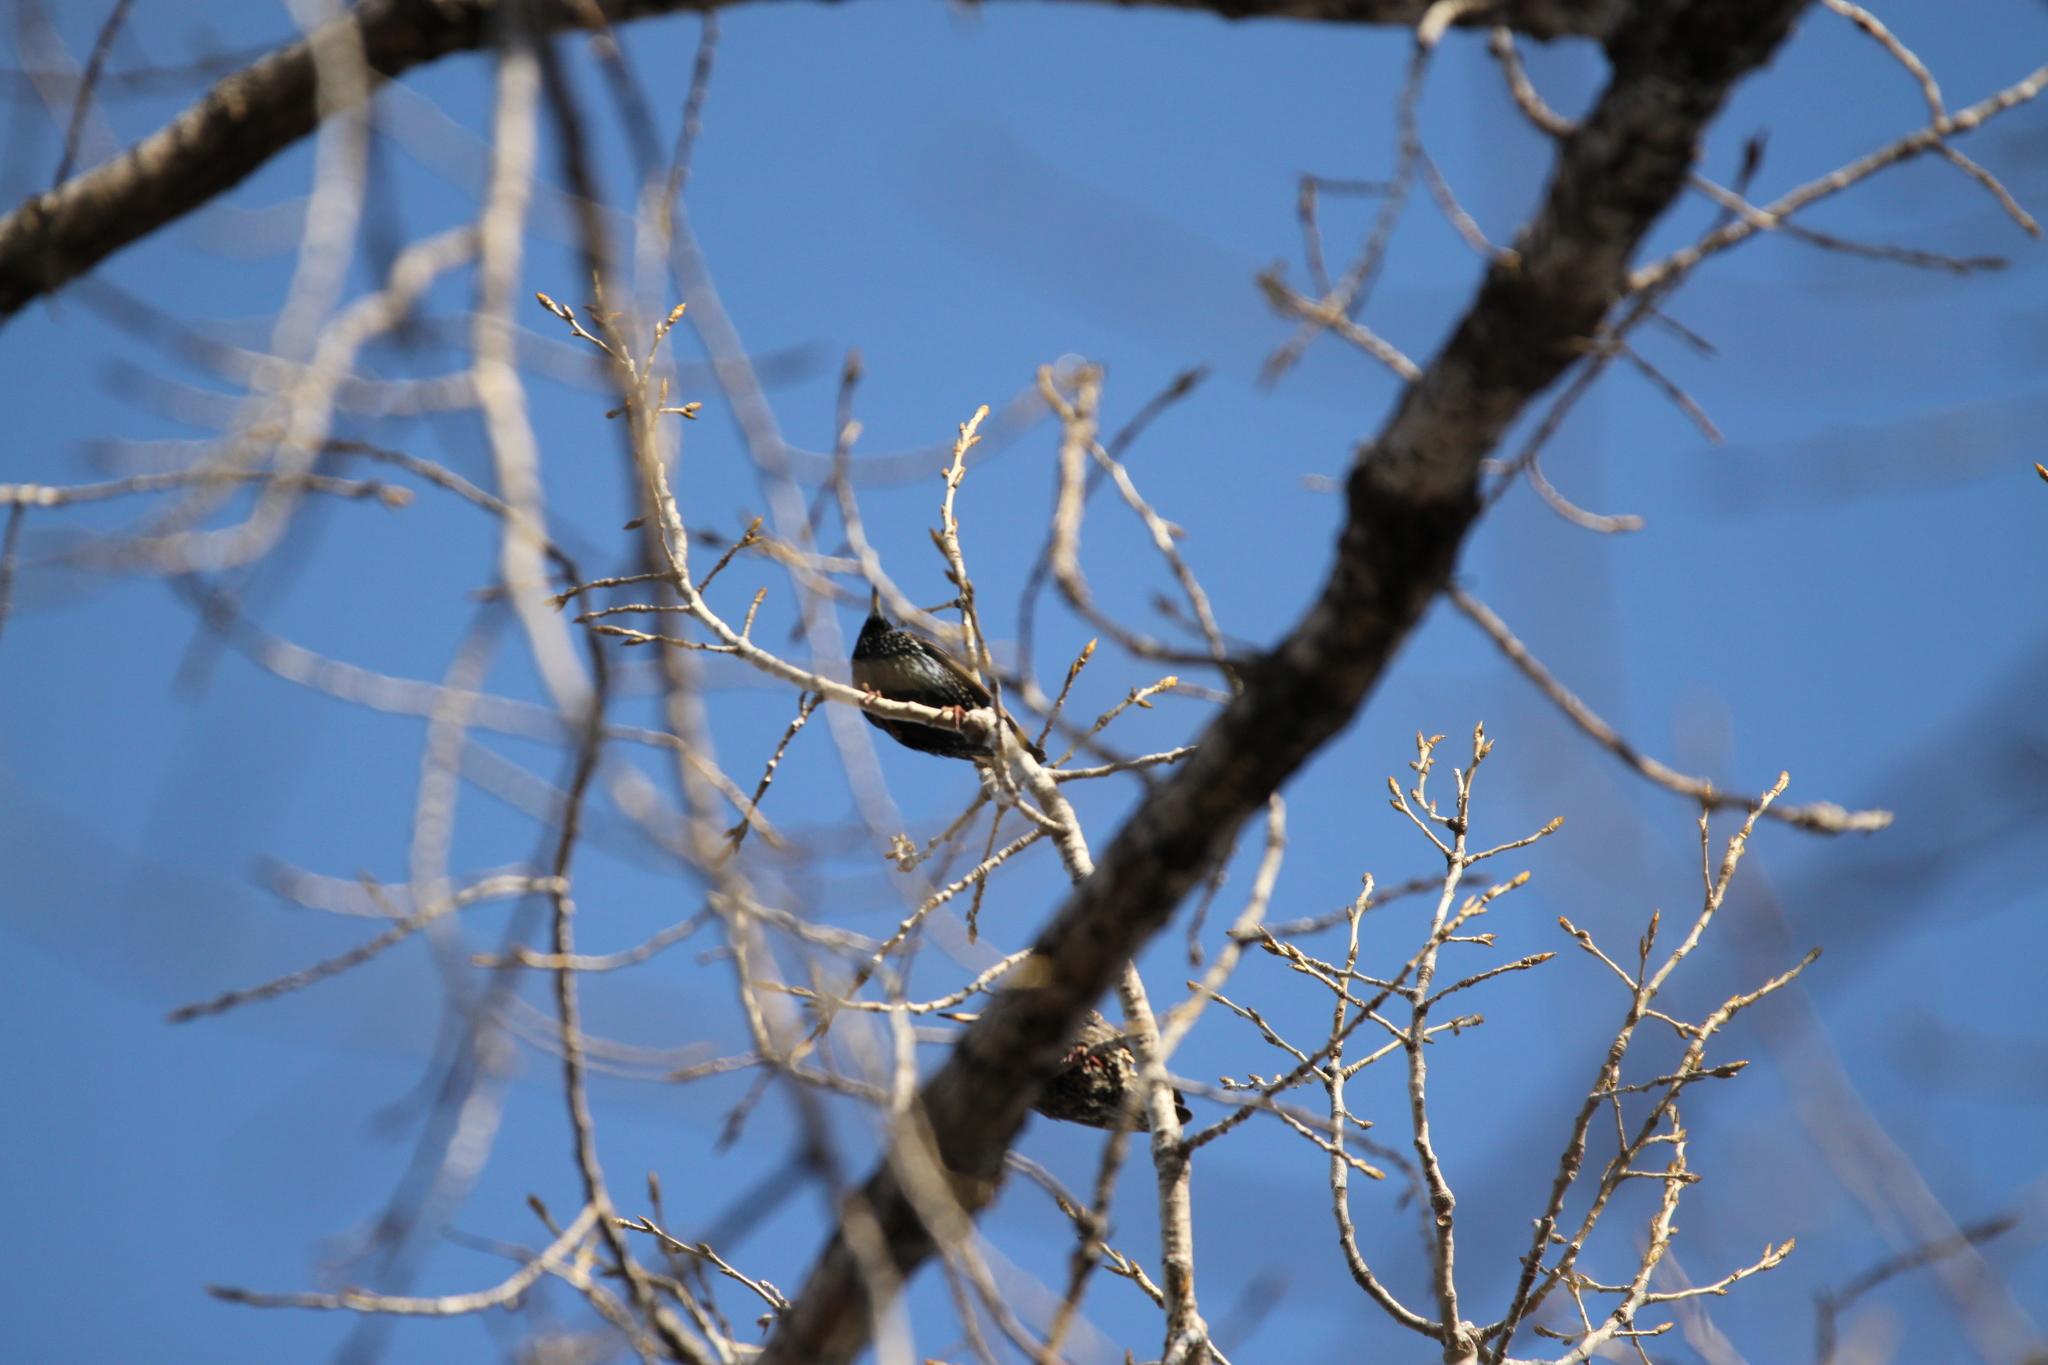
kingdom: Animalia
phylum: Chordata
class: Aves
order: Passeriformes
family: Sturnidae
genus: Sturnus
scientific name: Sturnus vulgaris
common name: Common starling
